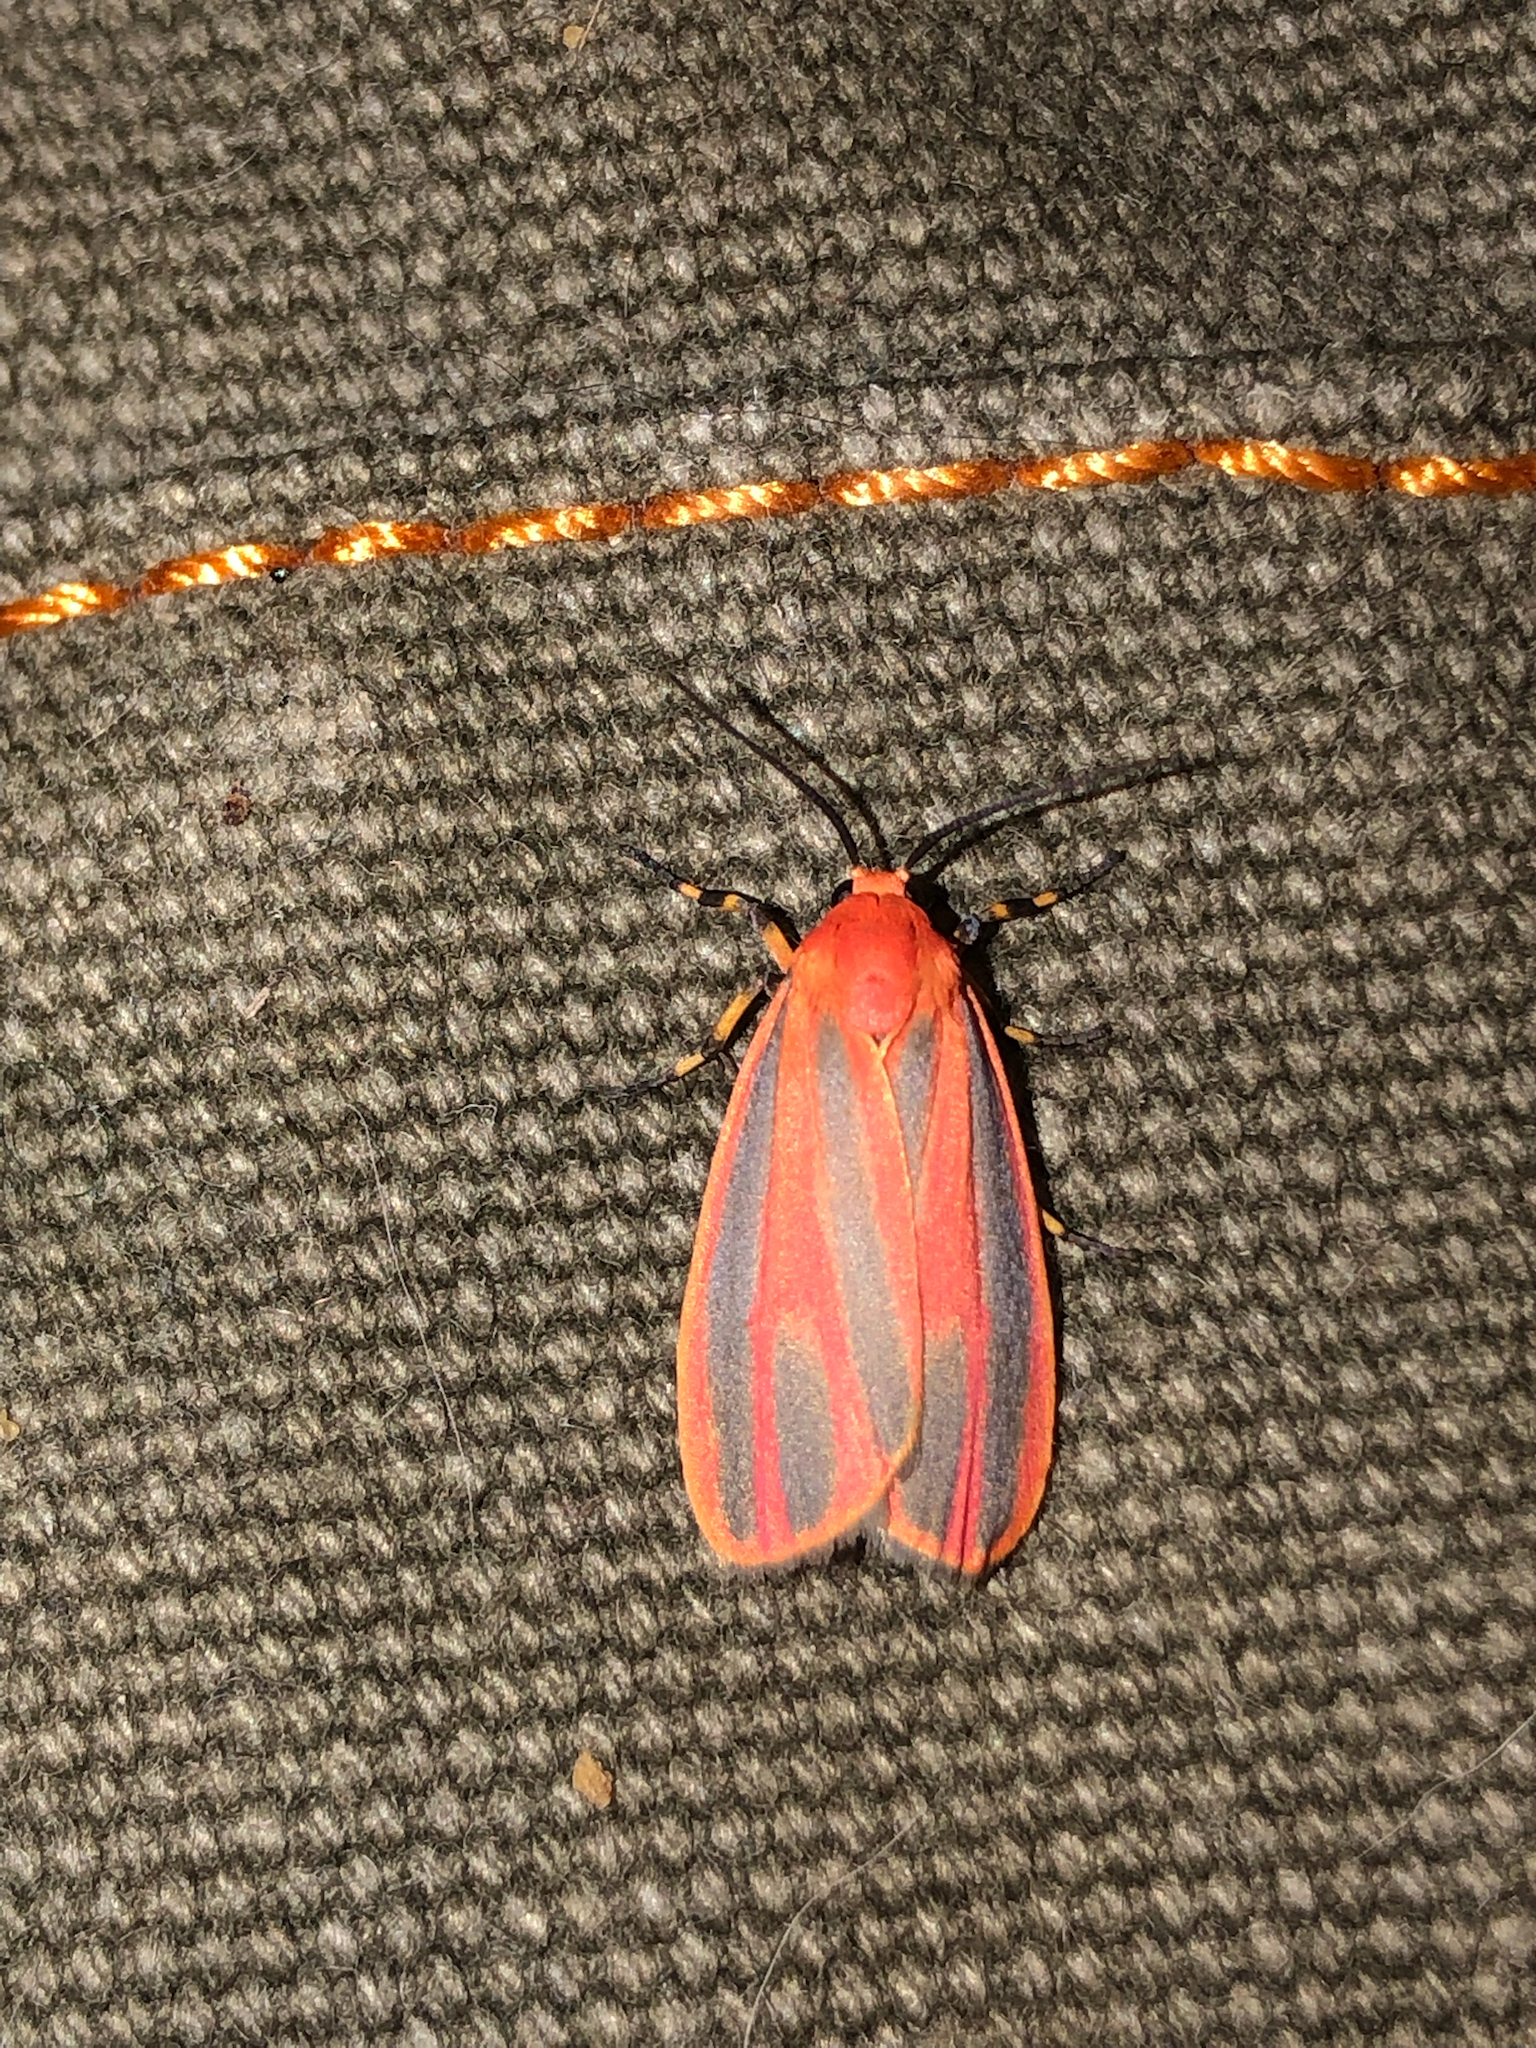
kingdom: Animalia
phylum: Arthropoda
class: Insecta
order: Lepidoptera
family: Erebidae
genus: Hypoprepia
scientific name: Hypoprepia miniata
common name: Scarlet-winged lichen moth
